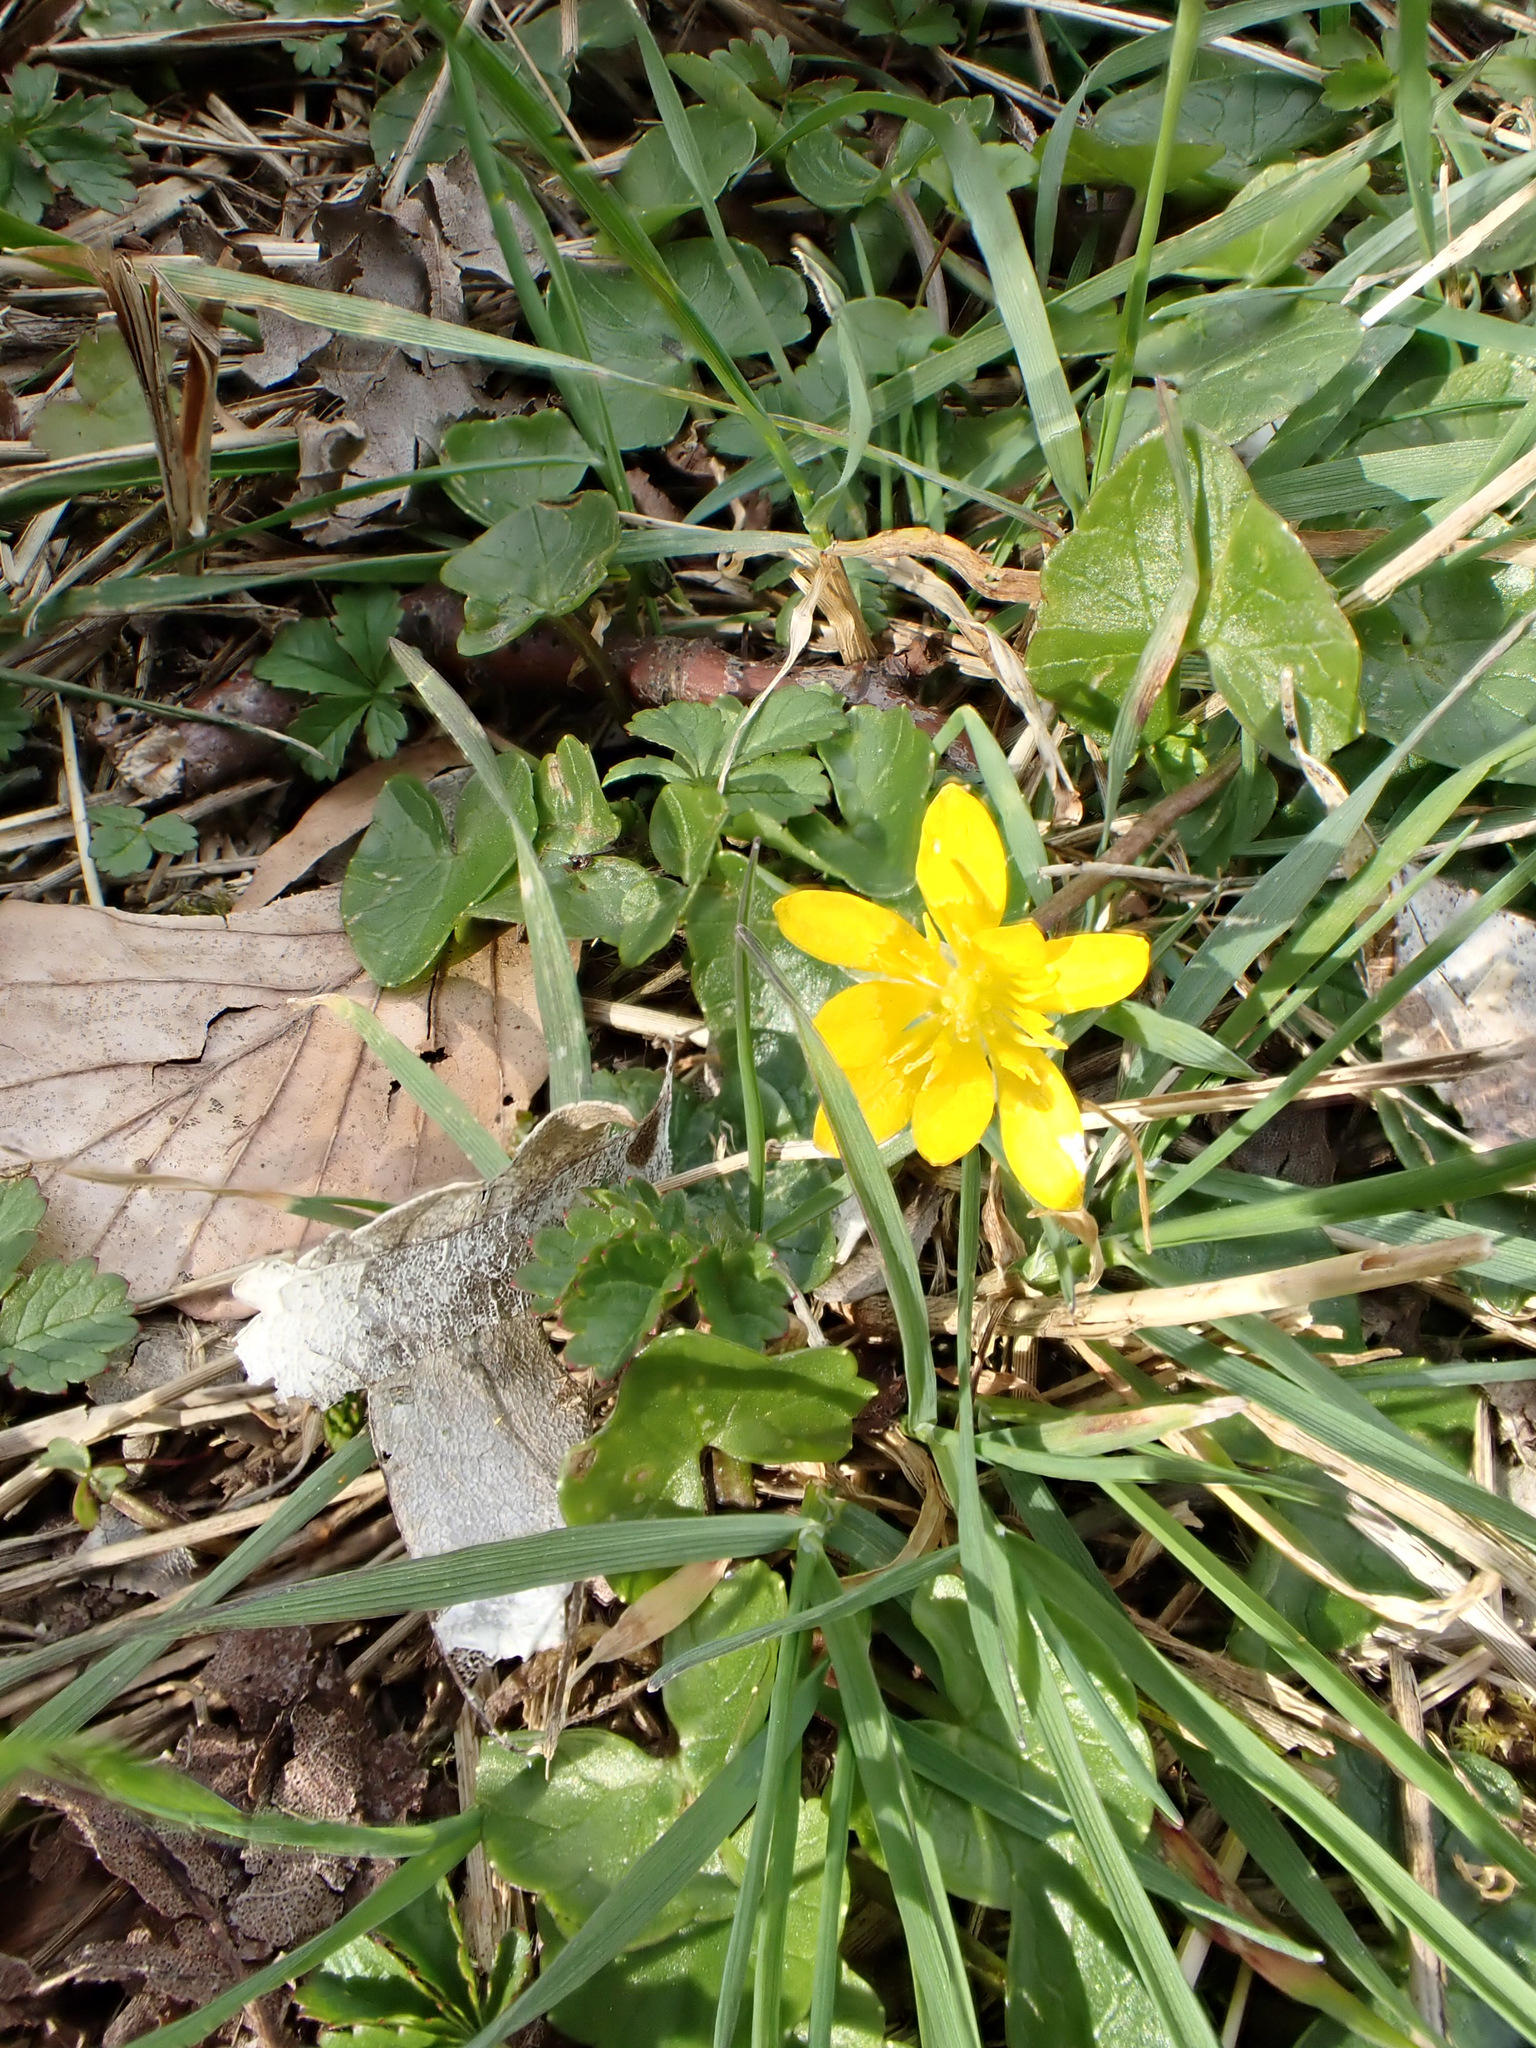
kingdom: Plantae
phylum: Tracheophyta
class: Magnoliopsida
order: Ranunculales
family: Ranunculaceae
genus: Ficaria
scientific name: Ficaria verna
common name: Lesser celandine
